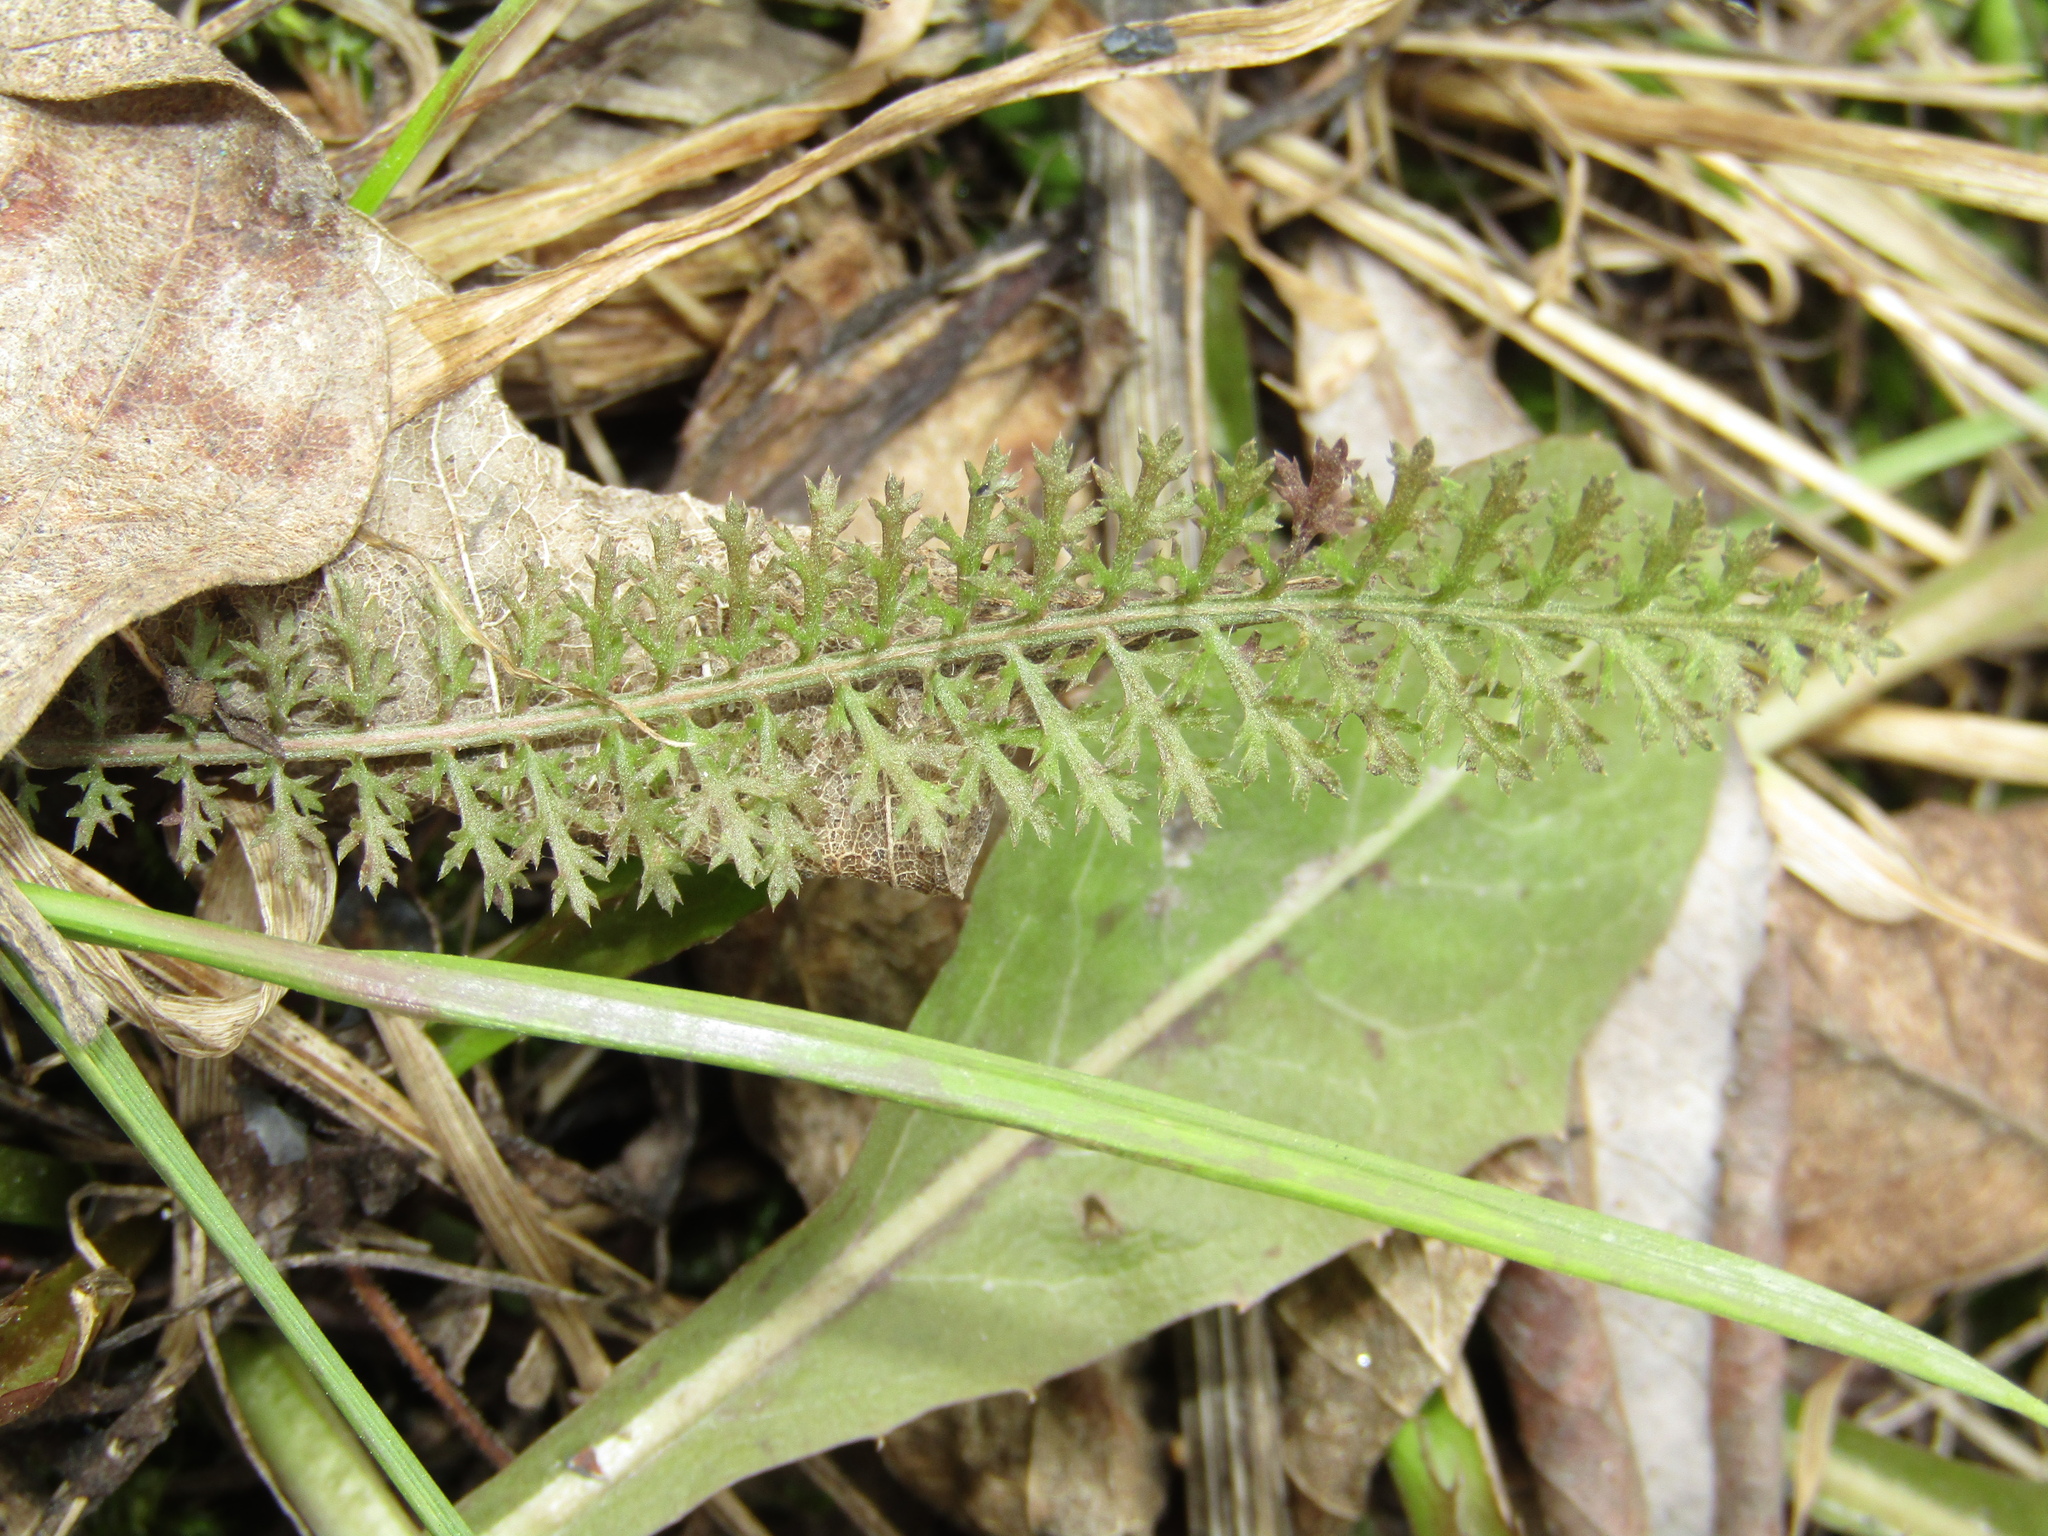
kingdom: Plantae
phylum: Tracheophyta
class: Magnoliopsida
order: Asterales
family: Asteraceae
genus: Achillea
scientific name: Achillea millefolium
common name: Yarrow
